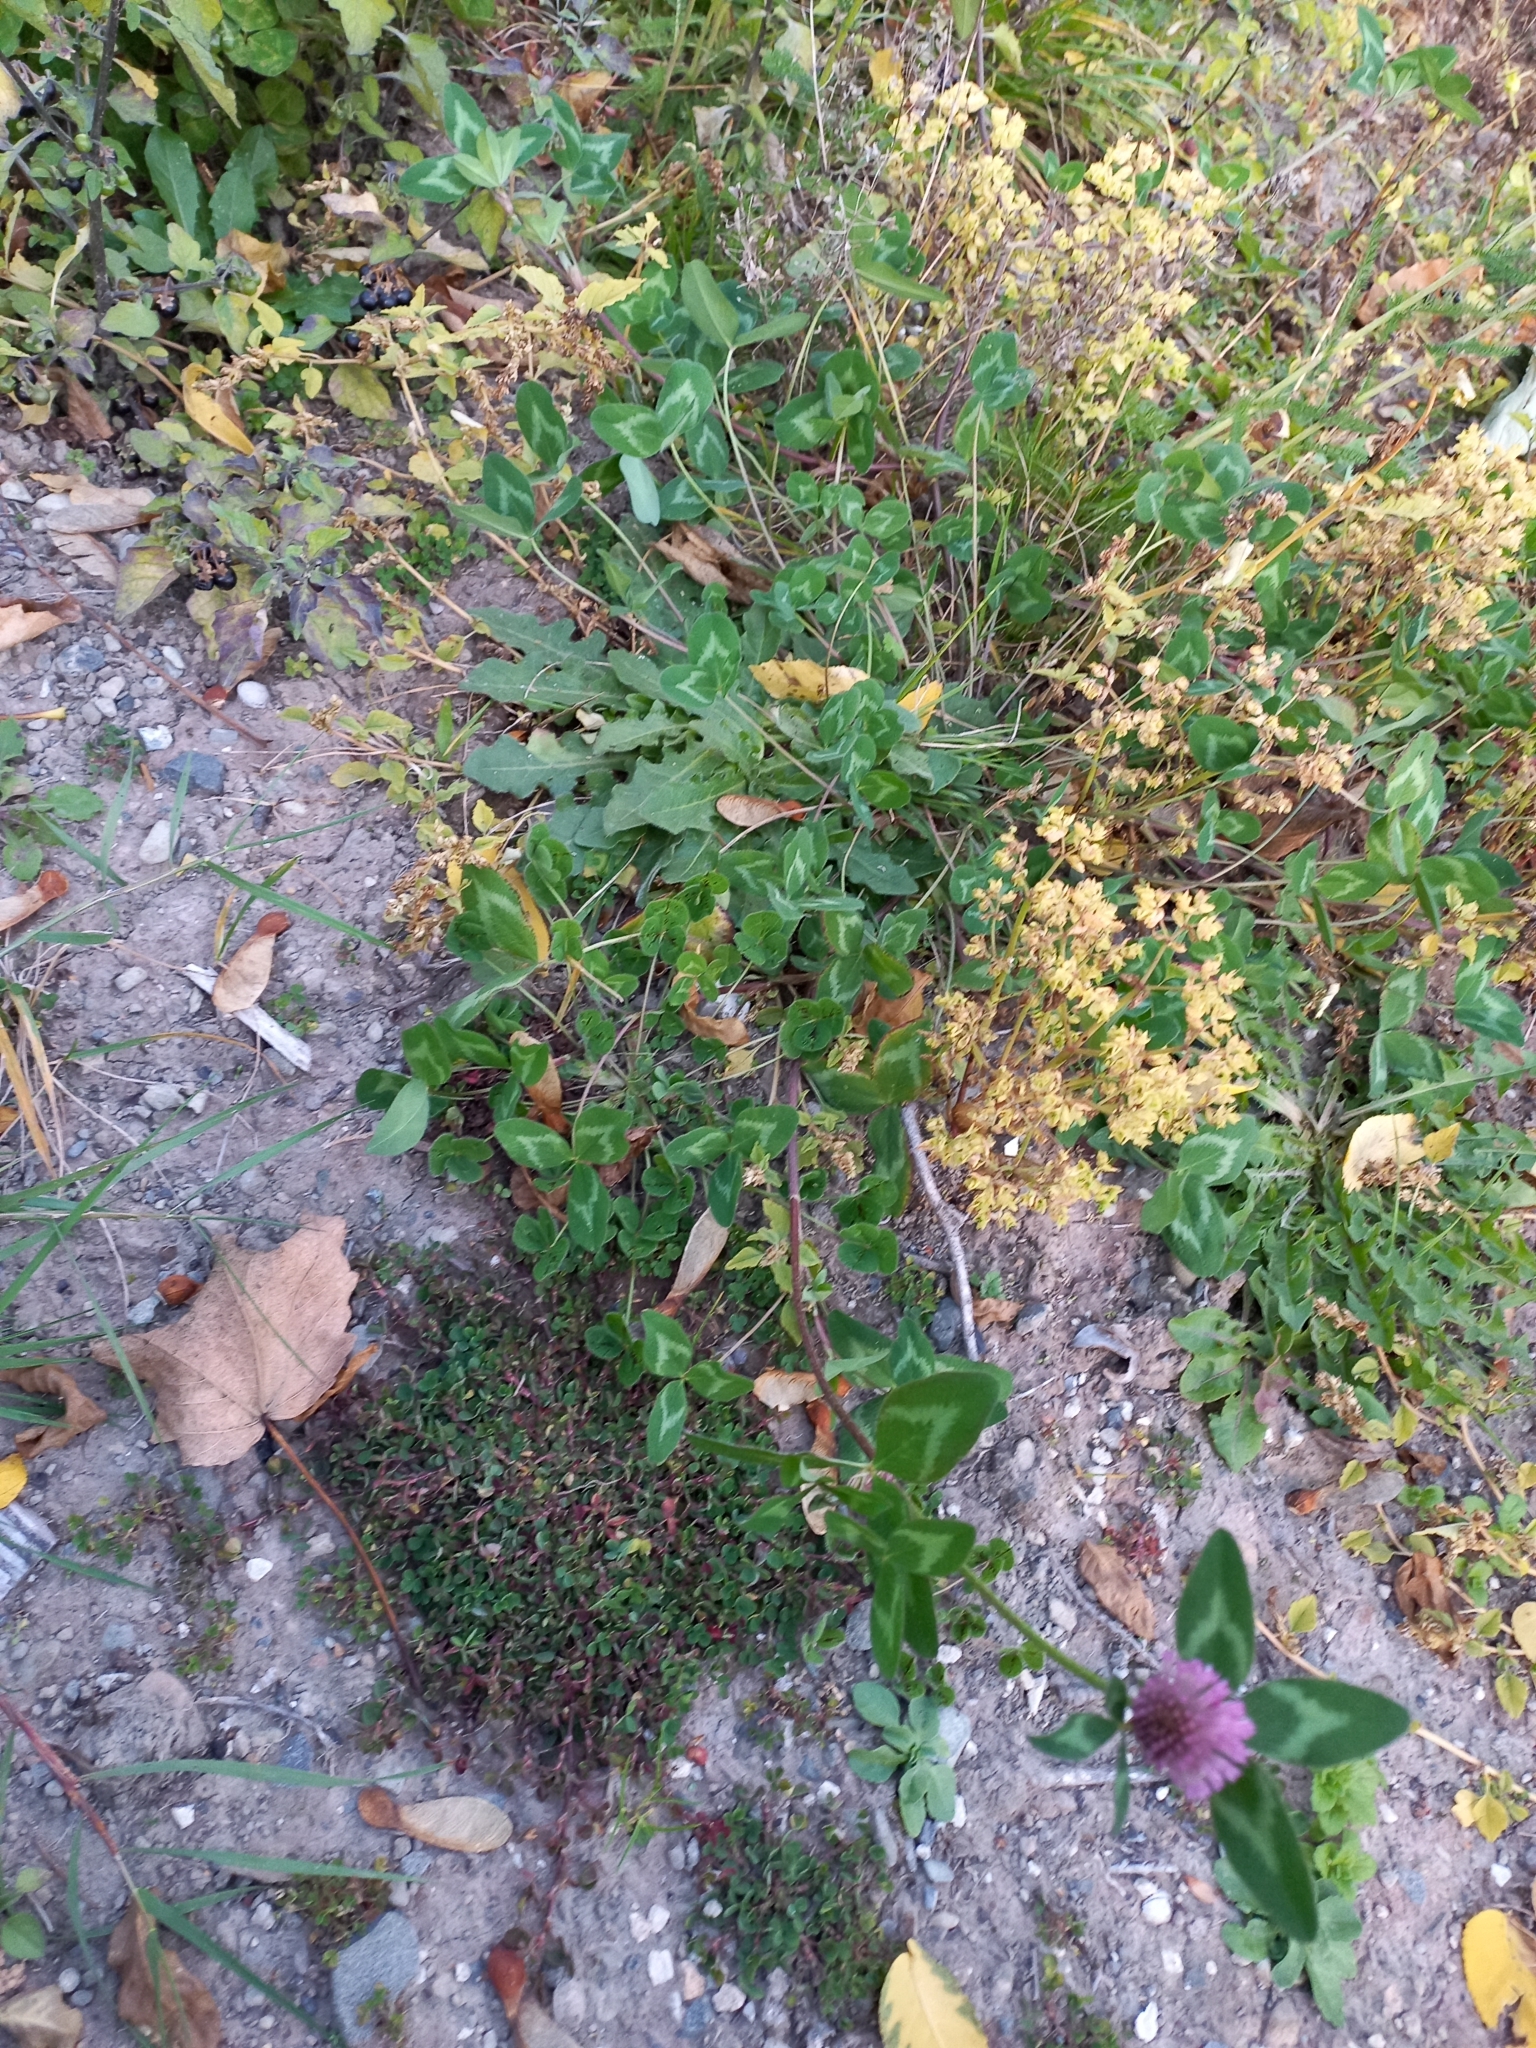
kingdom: Plantae
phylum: Tracheophyta
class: Magnoliopsida
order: Fabales
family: Fabaceae
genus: Trifolium
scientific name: Trifolium pratense
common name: Red clover
